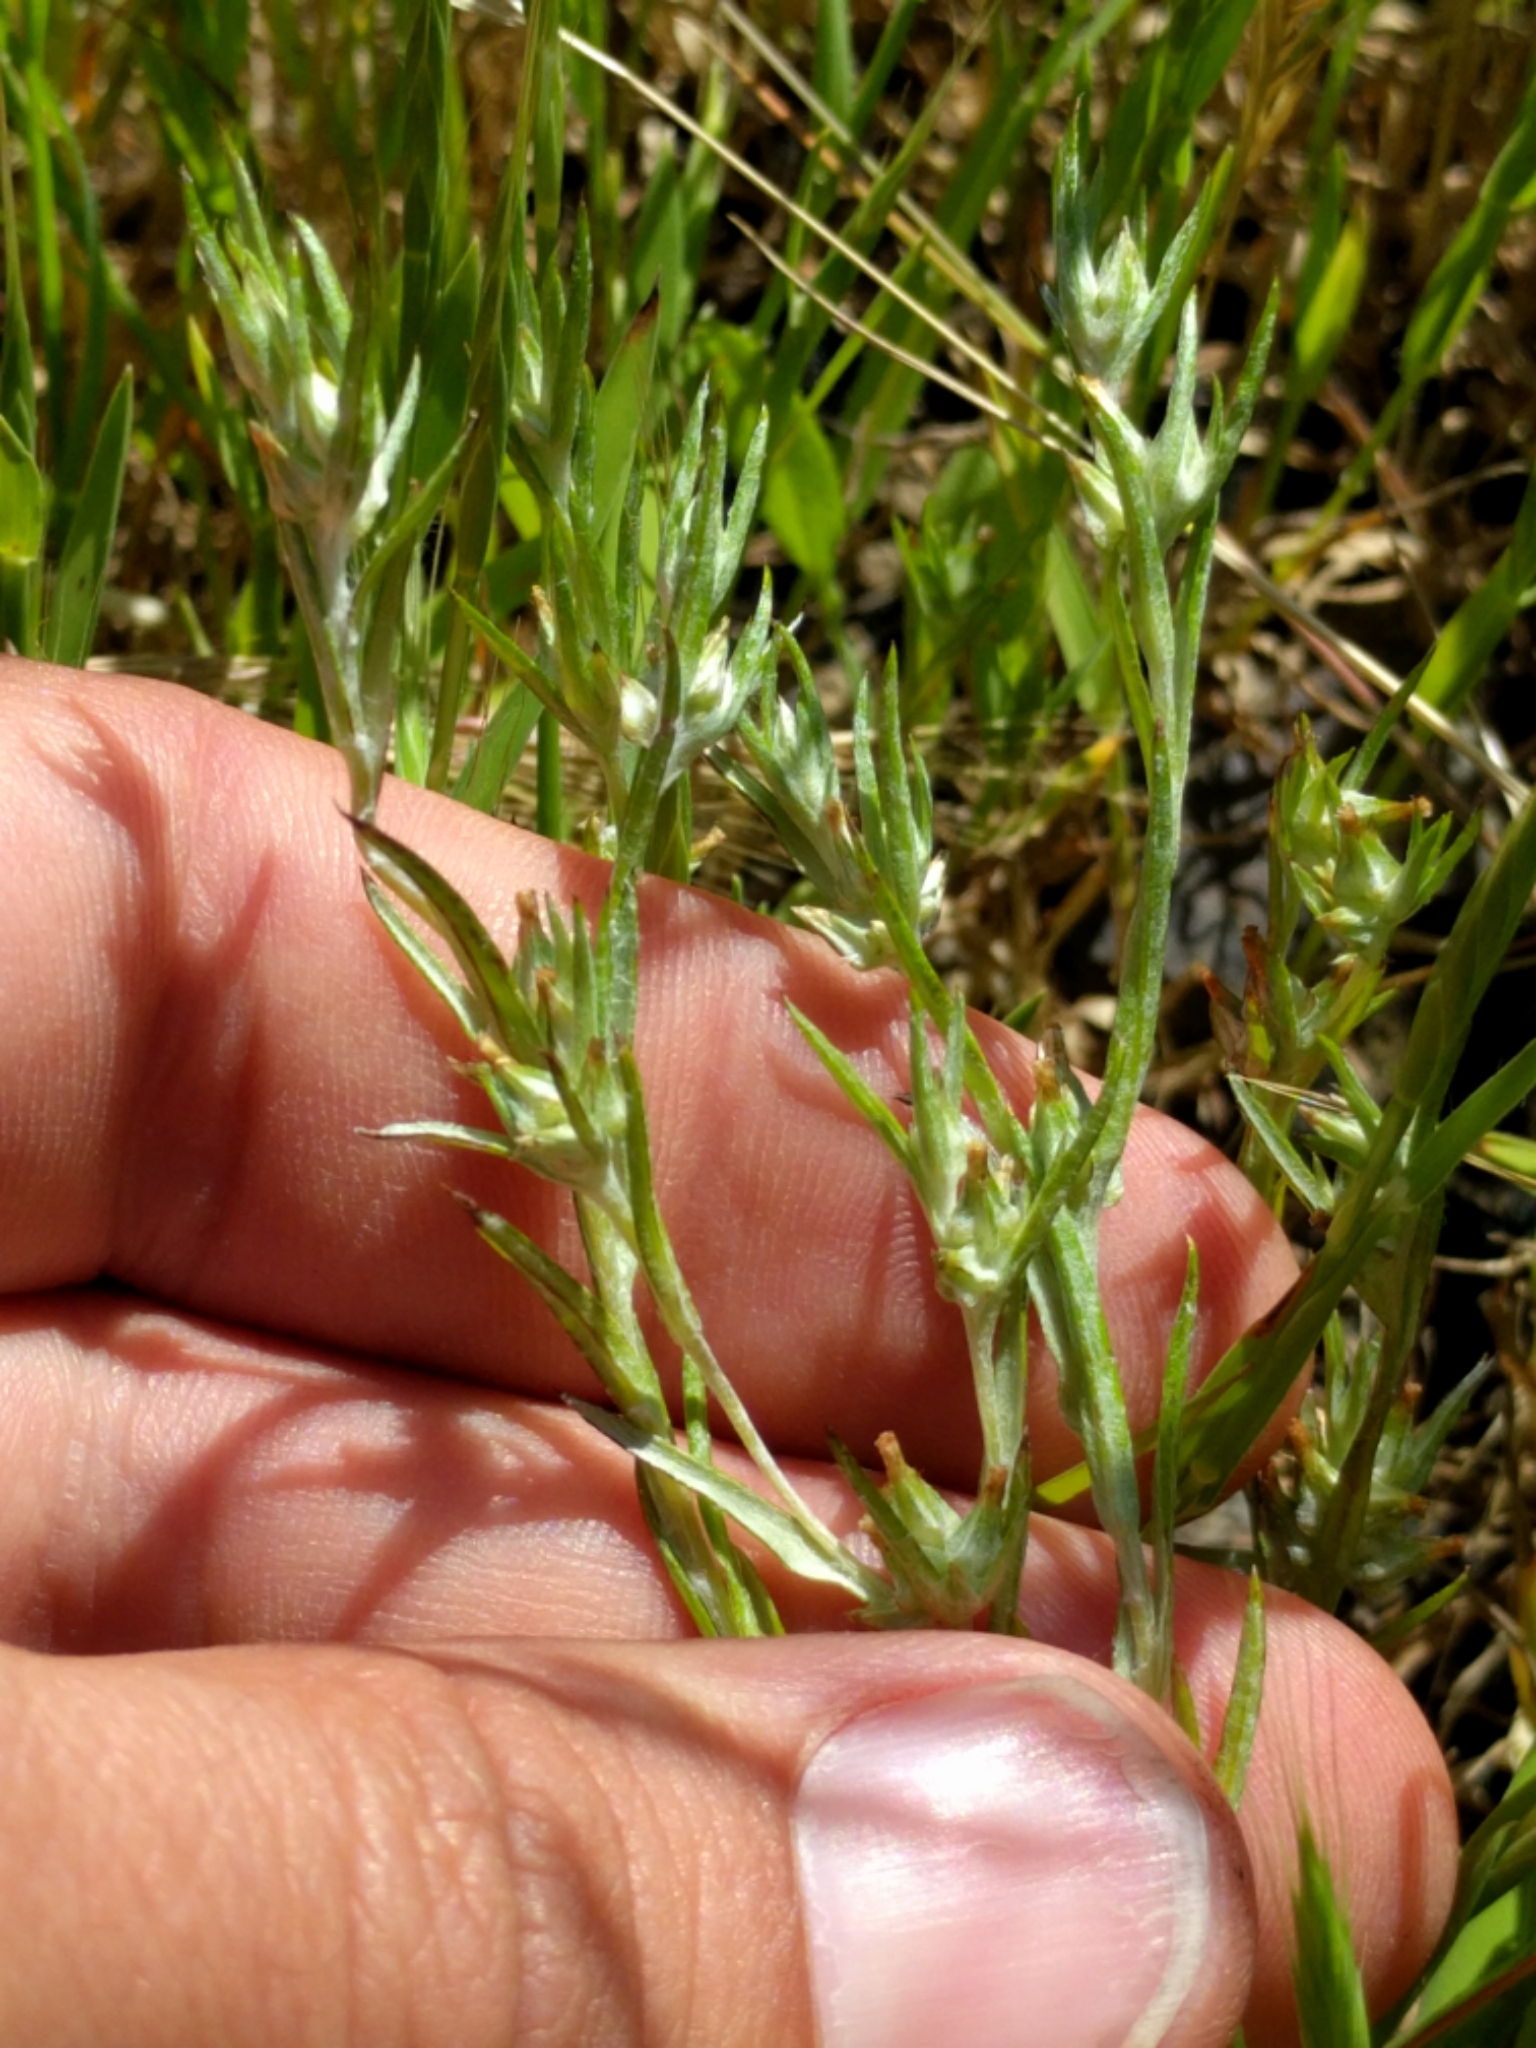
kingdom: Plantae
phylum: Tracheophyta
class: Magnoliopsida
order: Asterales
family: Asteraceae
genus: Logfia
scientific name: Logfia gallica
